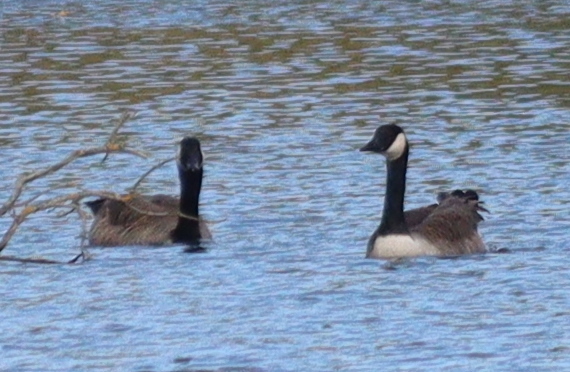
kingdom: Animalia
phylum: Chordata
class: Aves
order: Anseriformes
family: Anatidae
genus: Branta
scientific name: Branta canadensis
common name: Canada goose
